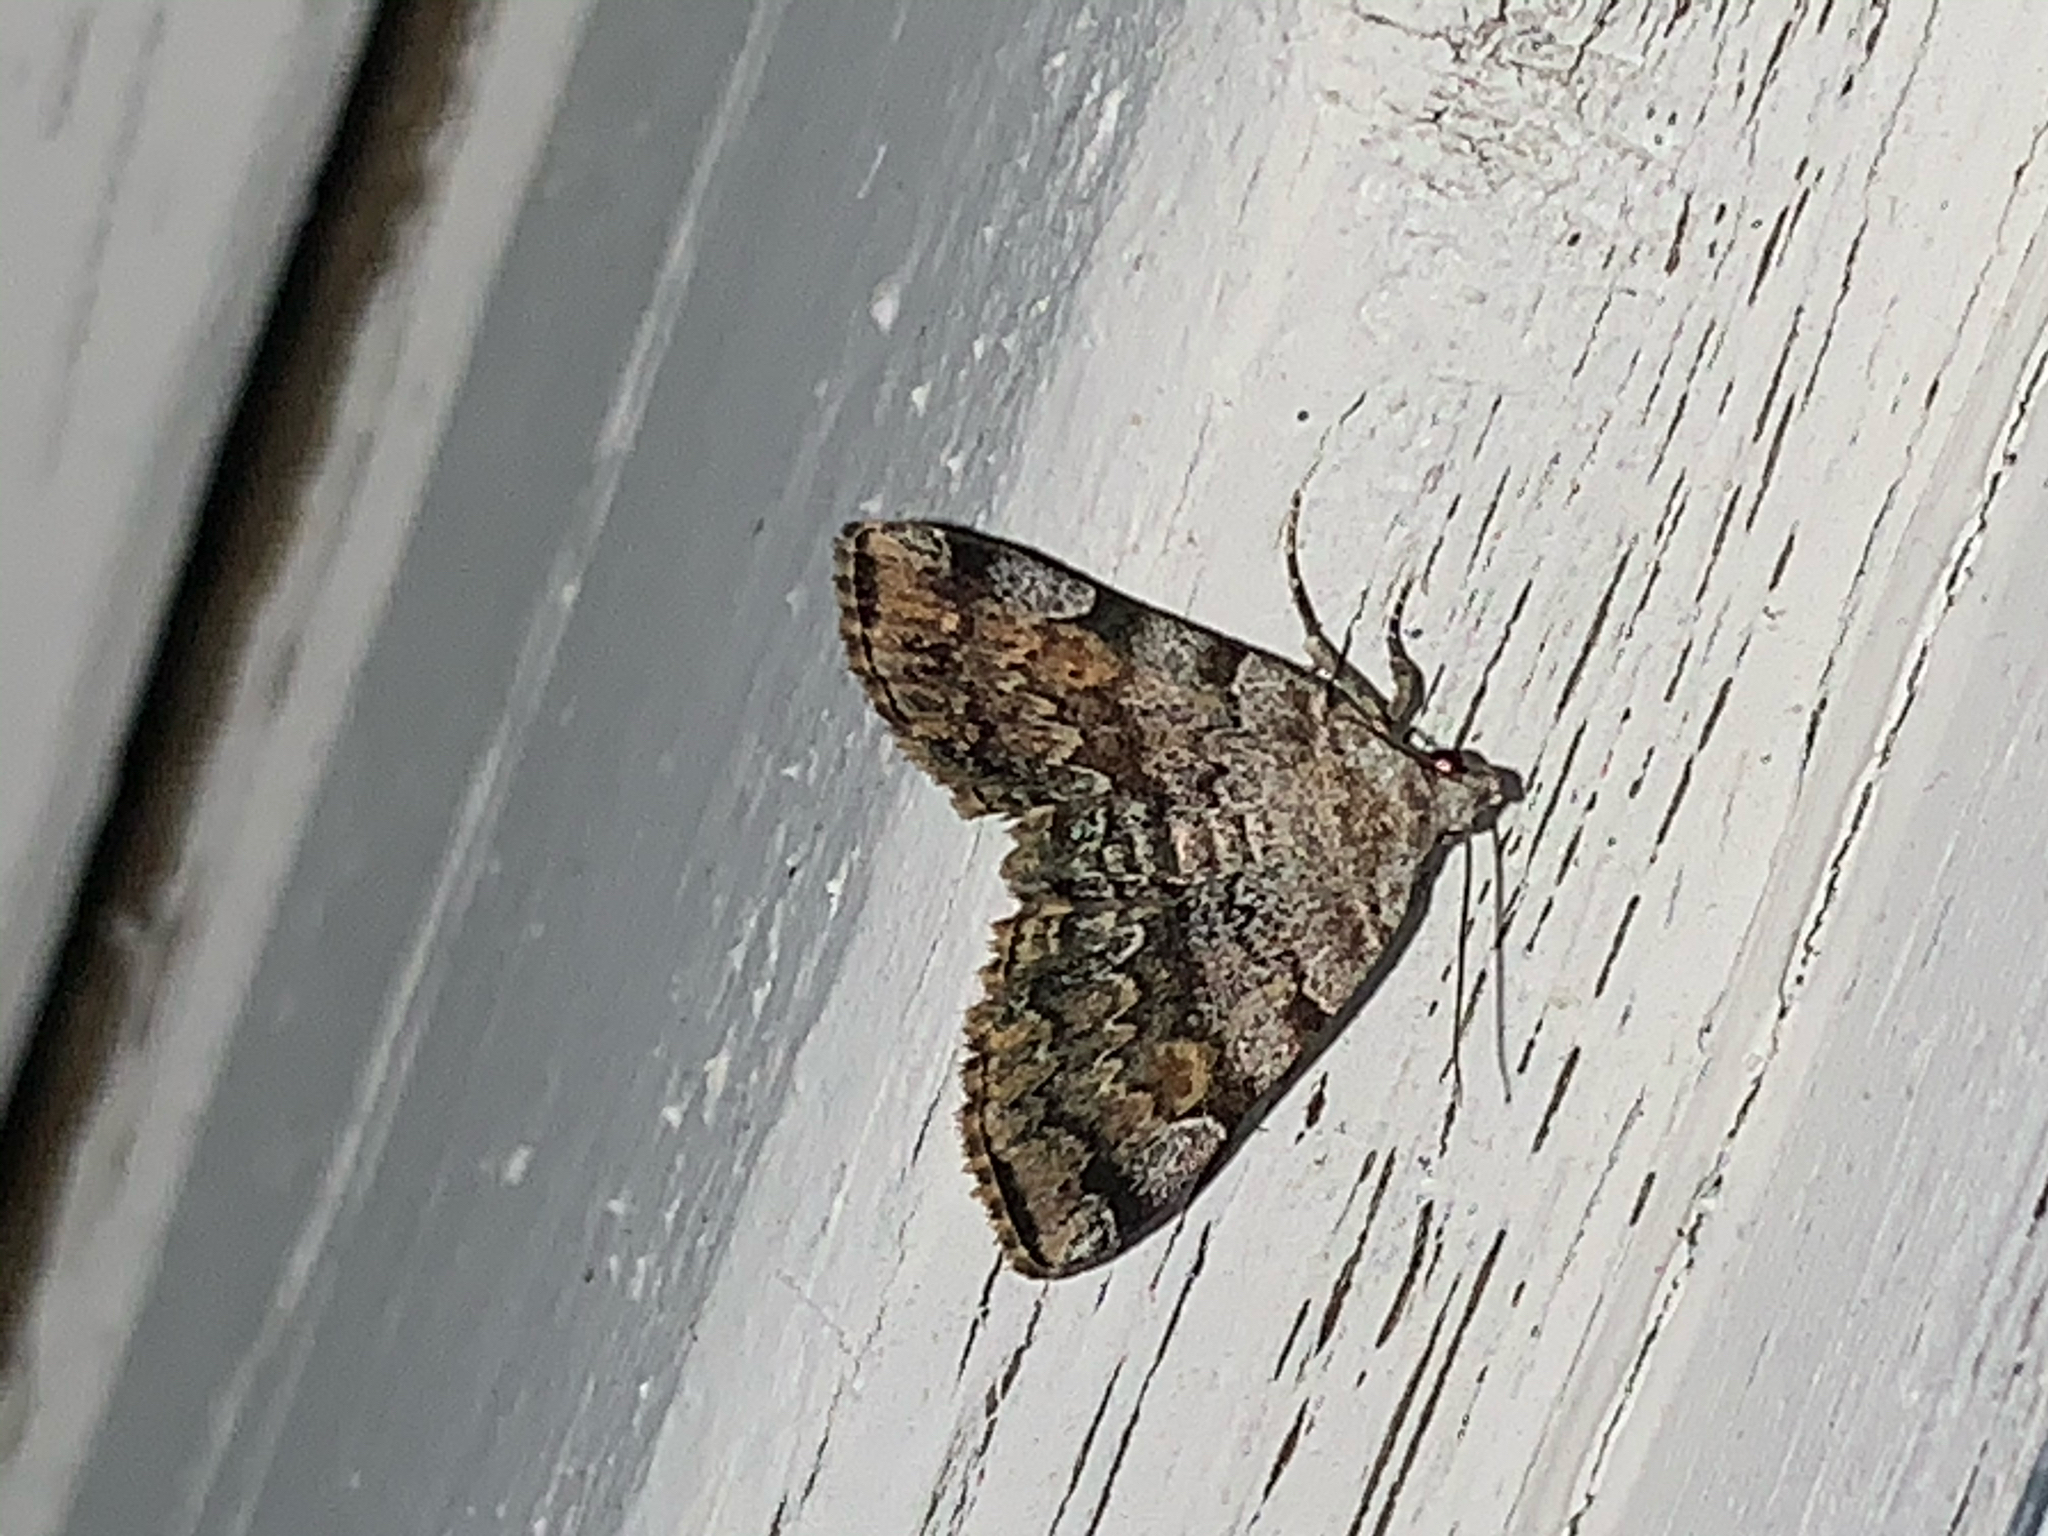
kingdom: Animalia
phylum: Arthropoda
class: Insecta
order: Lepidoptera
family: Erebidae
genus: Idia
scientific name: Idia americalis
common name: American idia moth
